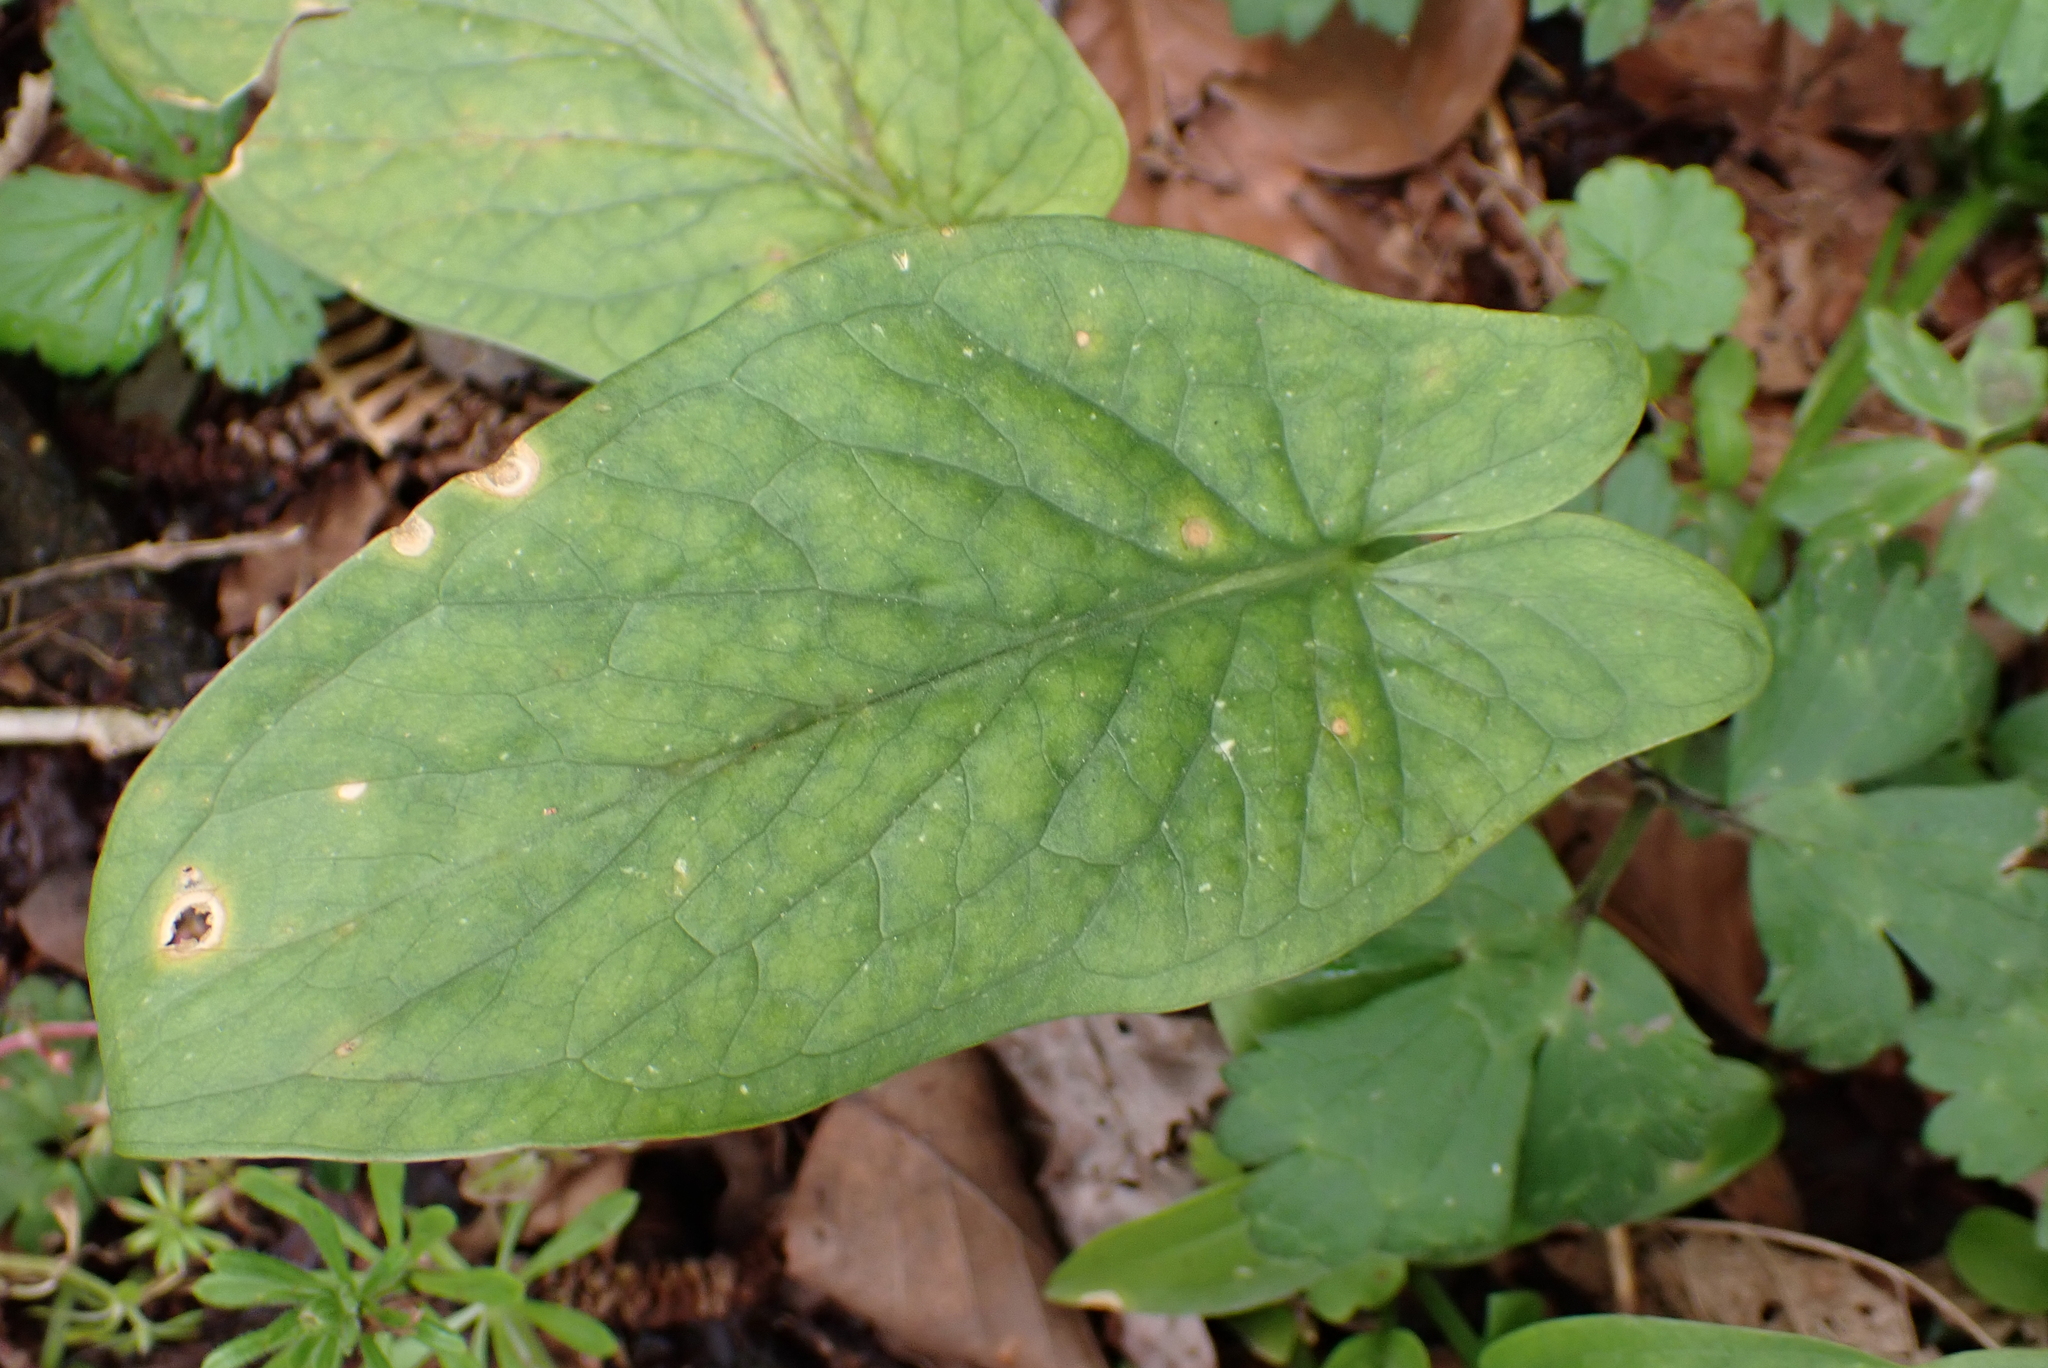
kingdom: Plantae
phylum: Tracheophyta
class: Liliopsida
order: Alismatales
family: Araceae
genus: Arum
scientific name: Arum maculatum
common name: Lords-and-ladies
